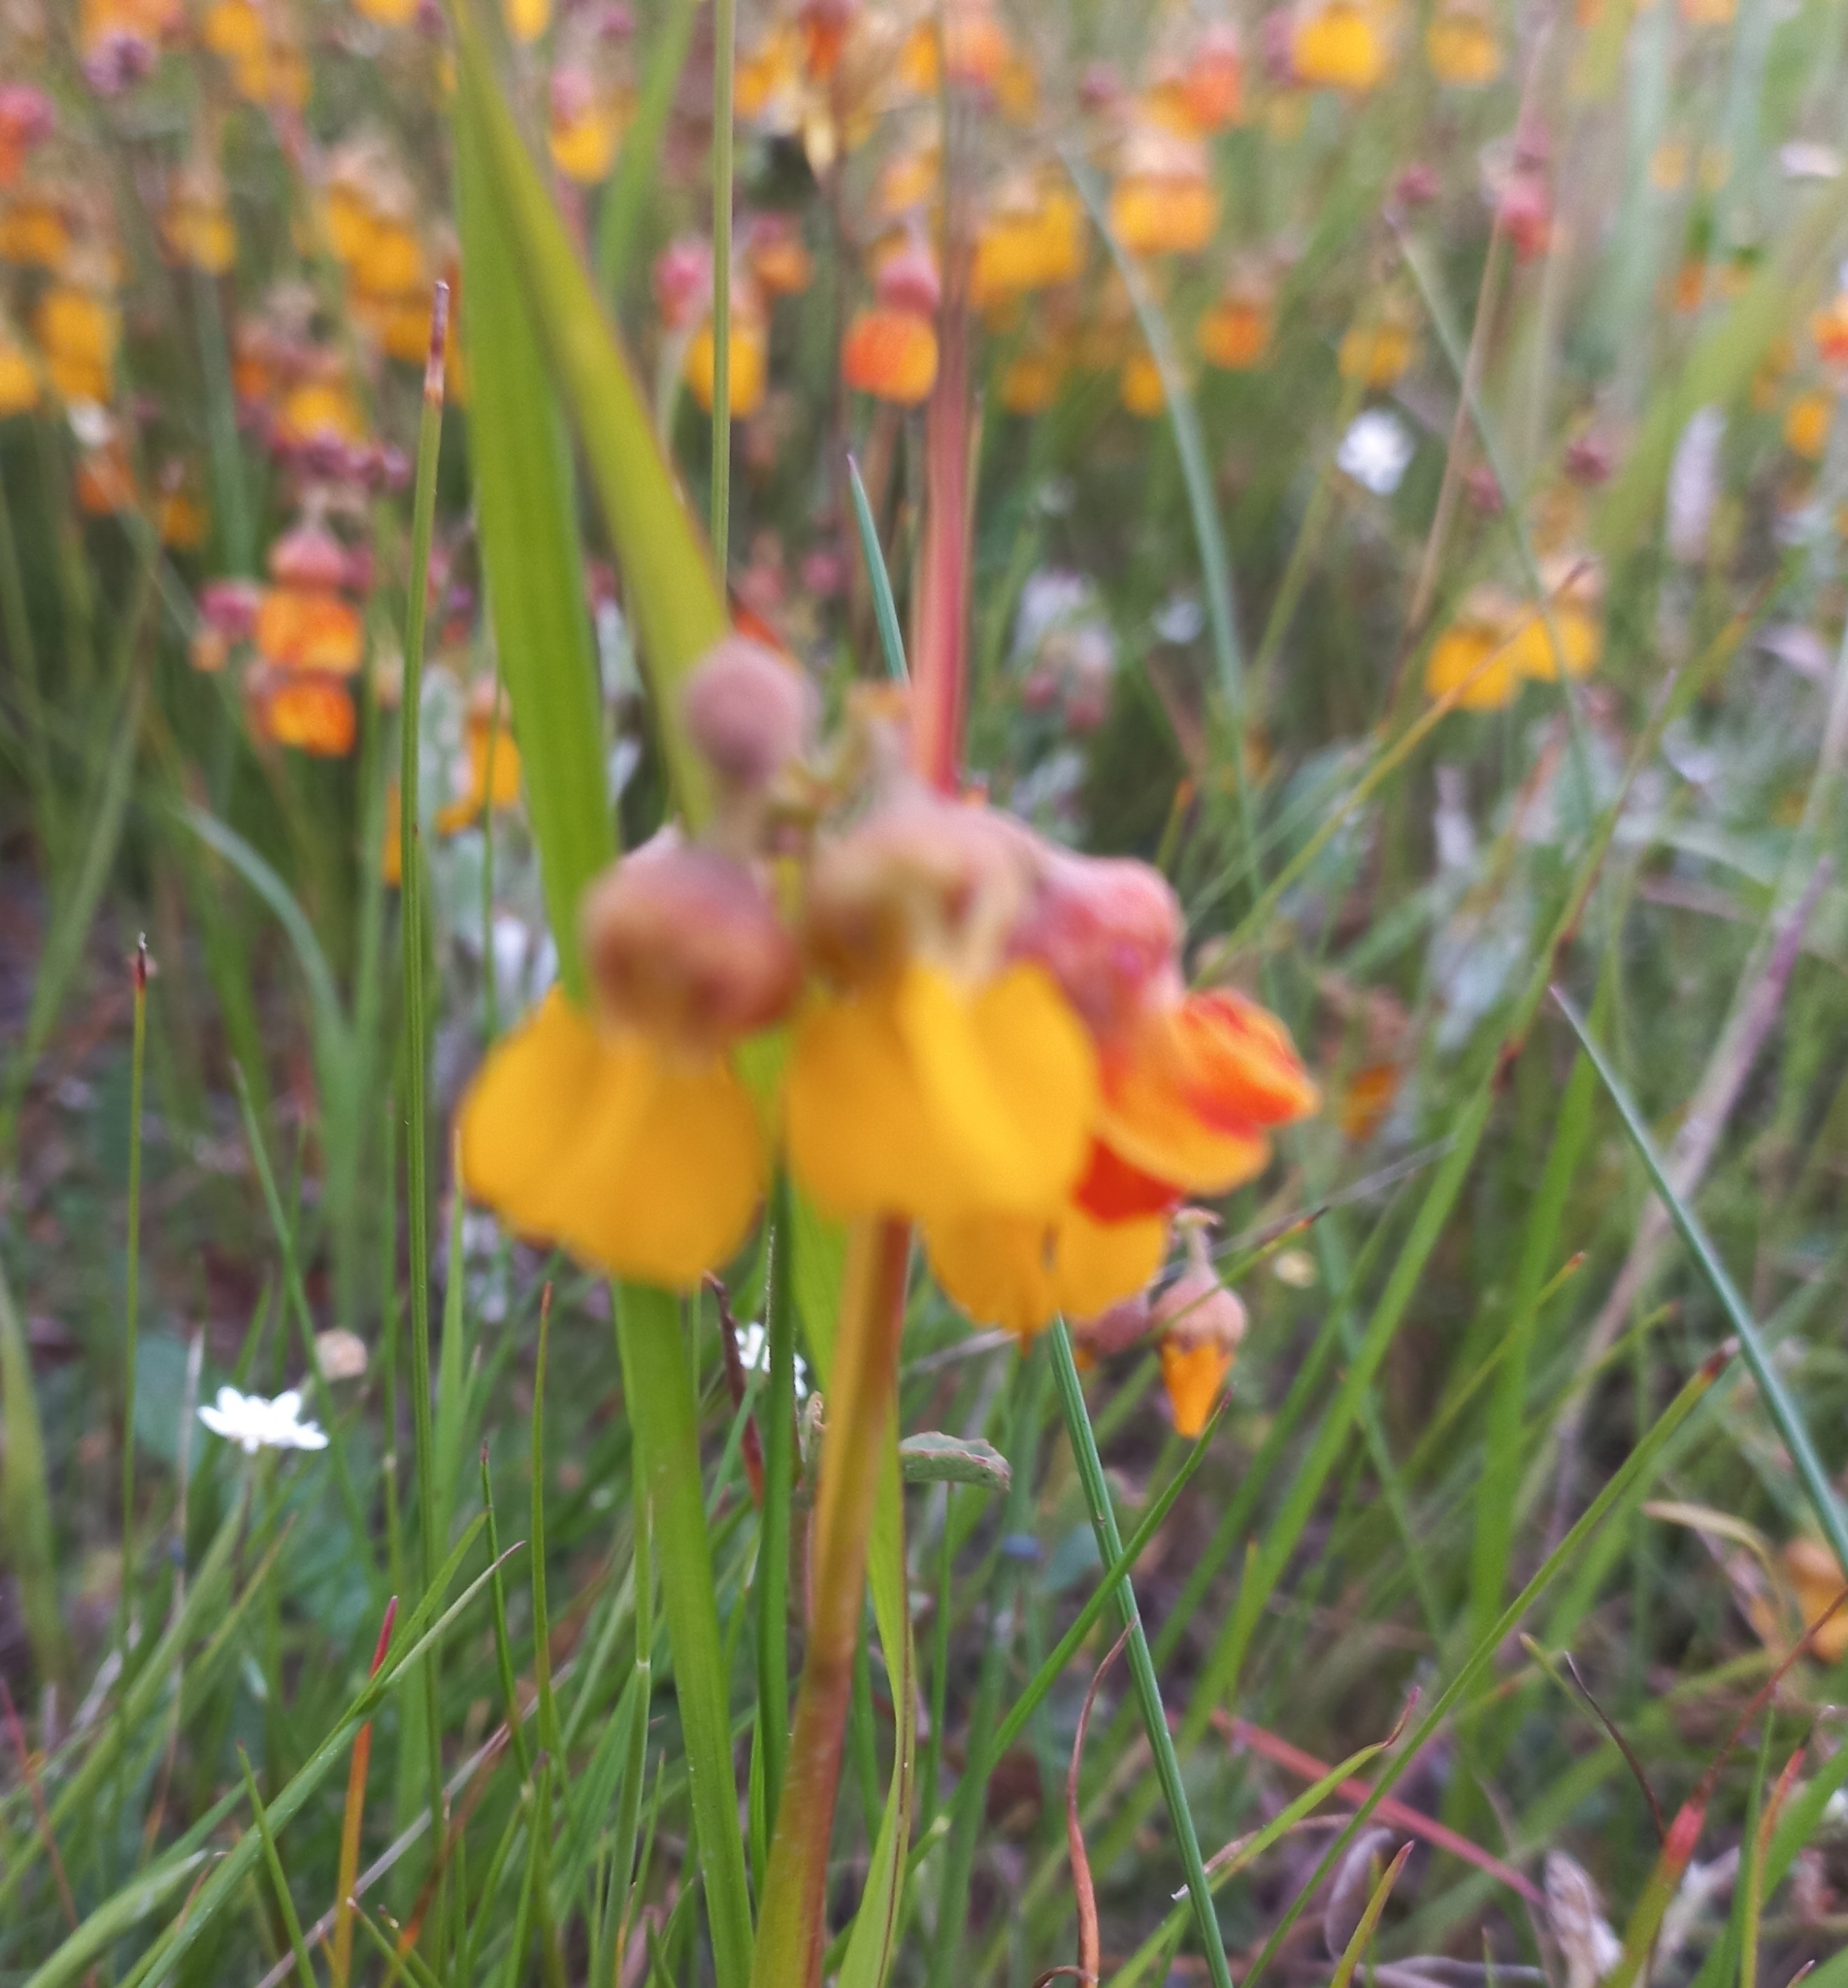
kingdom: Plantae
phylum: Tracheophyta
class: Magnoliopsida
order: Malvales
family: Malvaceae
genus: Hermannia
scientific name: Hermannia multiflora
